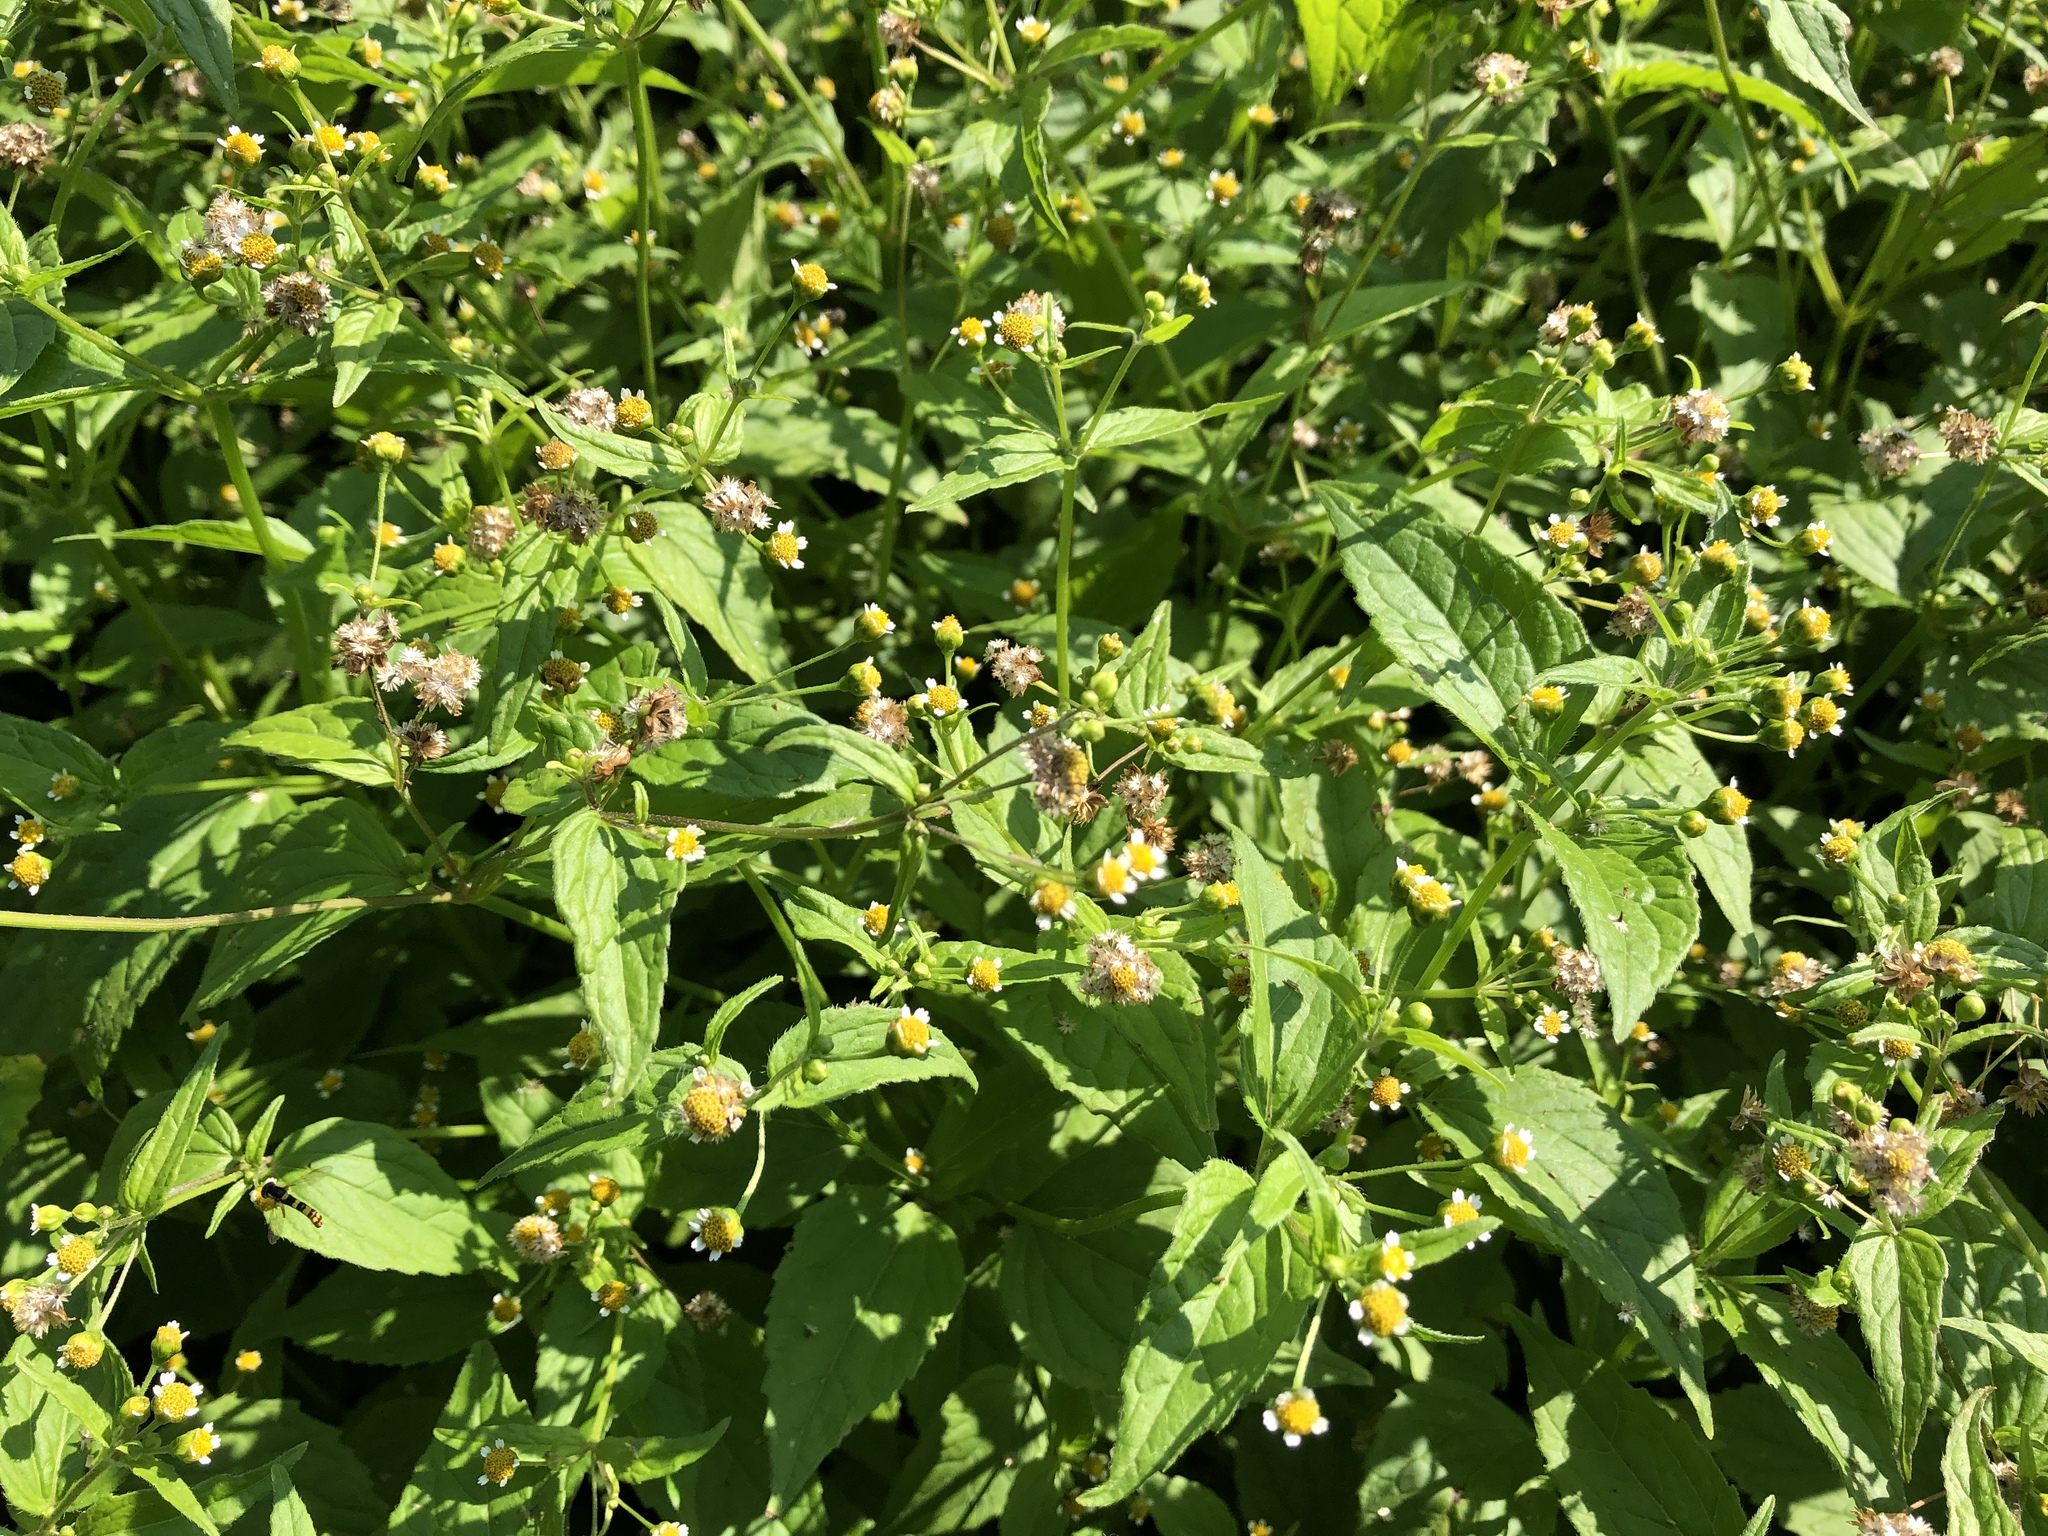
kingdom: Plantae
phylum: Tracheophyta
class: Magnoliopsida
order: Asterales
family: Asteraceae
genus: Galinsoga
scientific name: Galinsoga parviflora
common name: Gallant soldier
